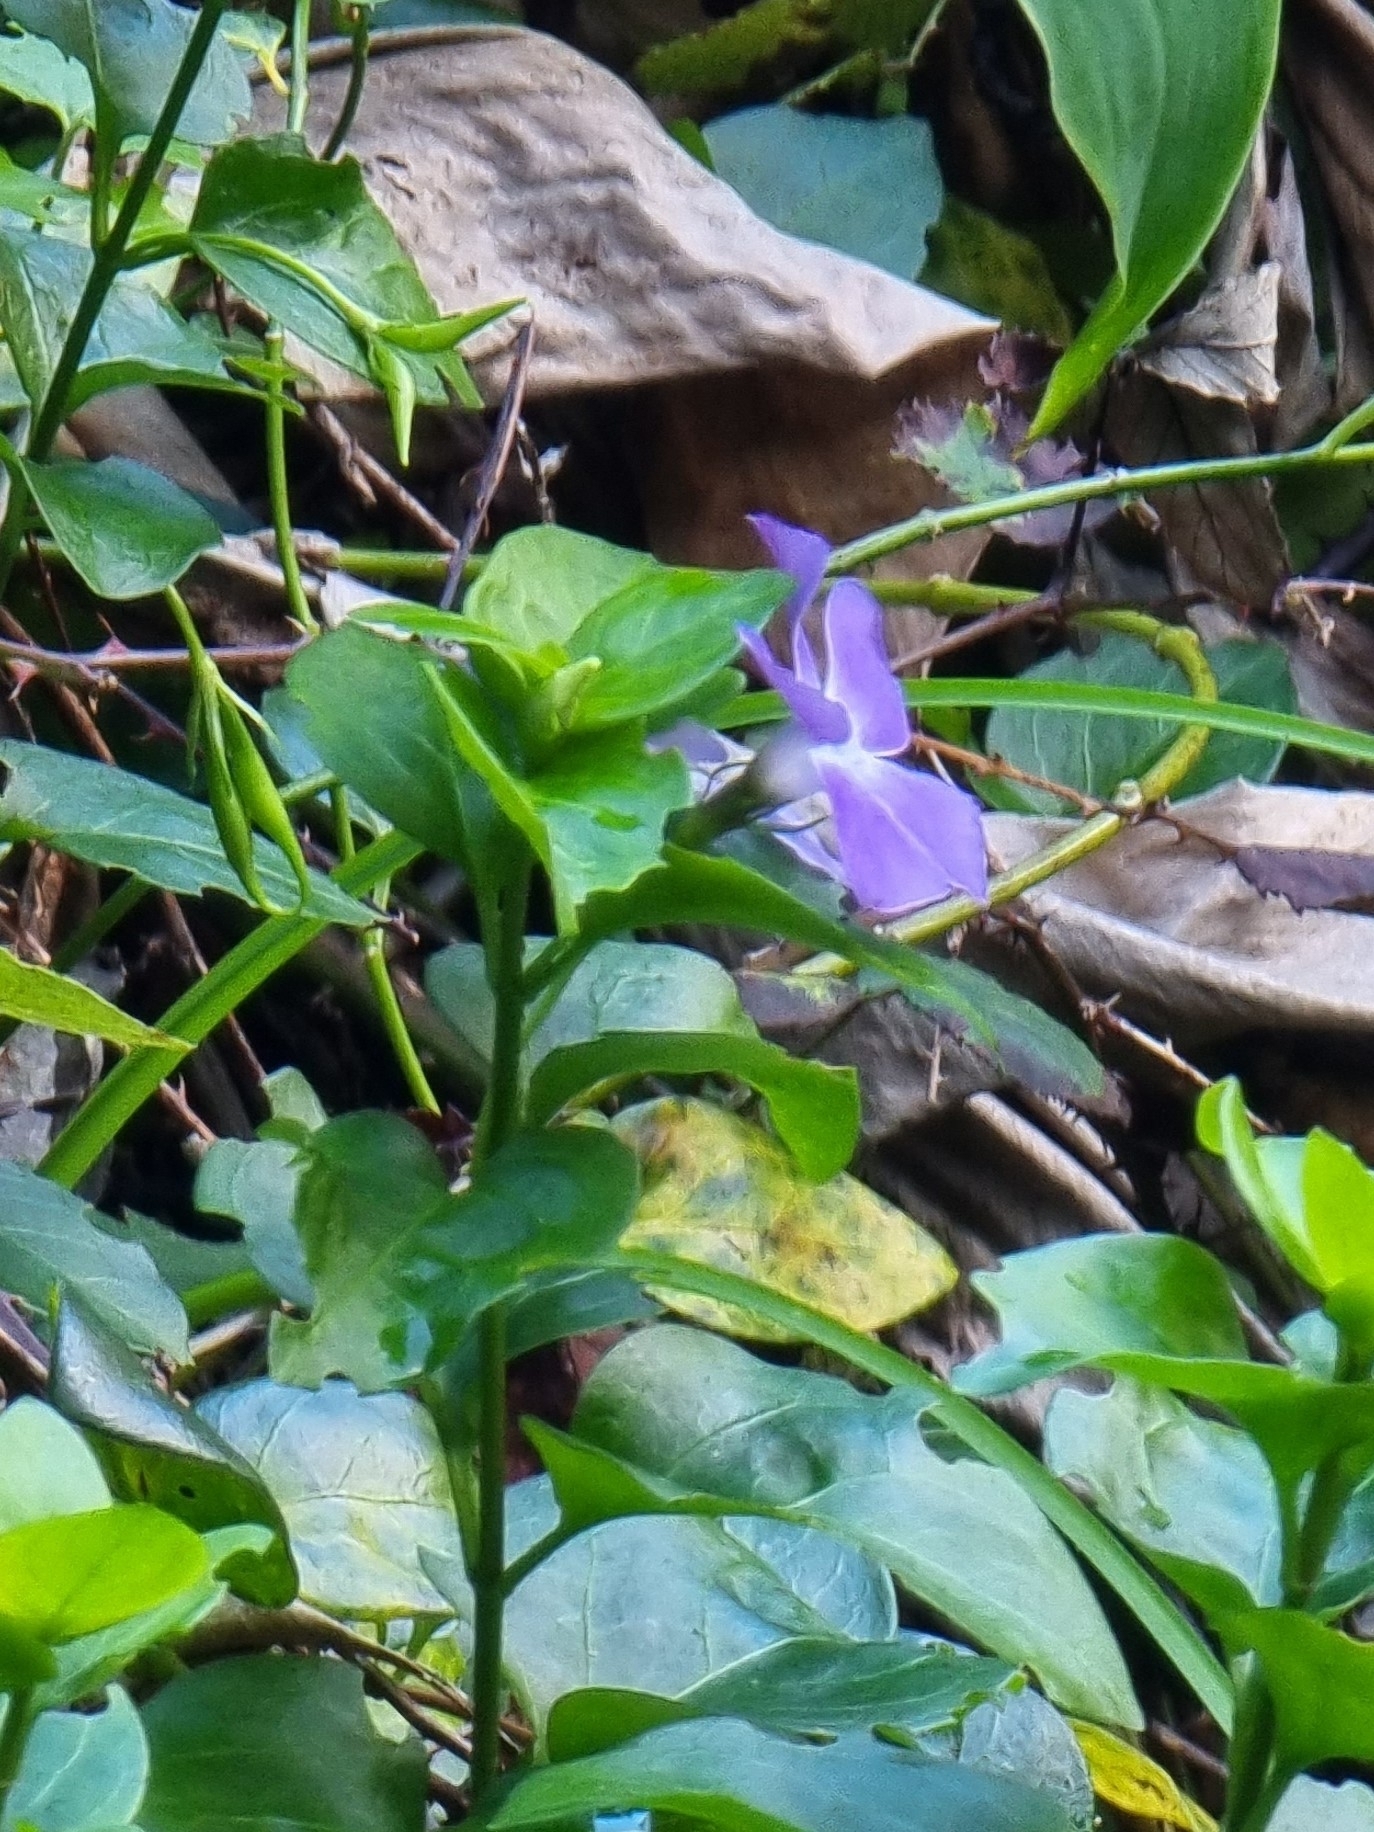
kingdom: Plantae
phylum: Tracheophyta
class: Magnoliopsida
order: Gentianales
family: Apocynaceae
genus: Vinca
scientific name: Vinca major
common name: Greater periwinkle
